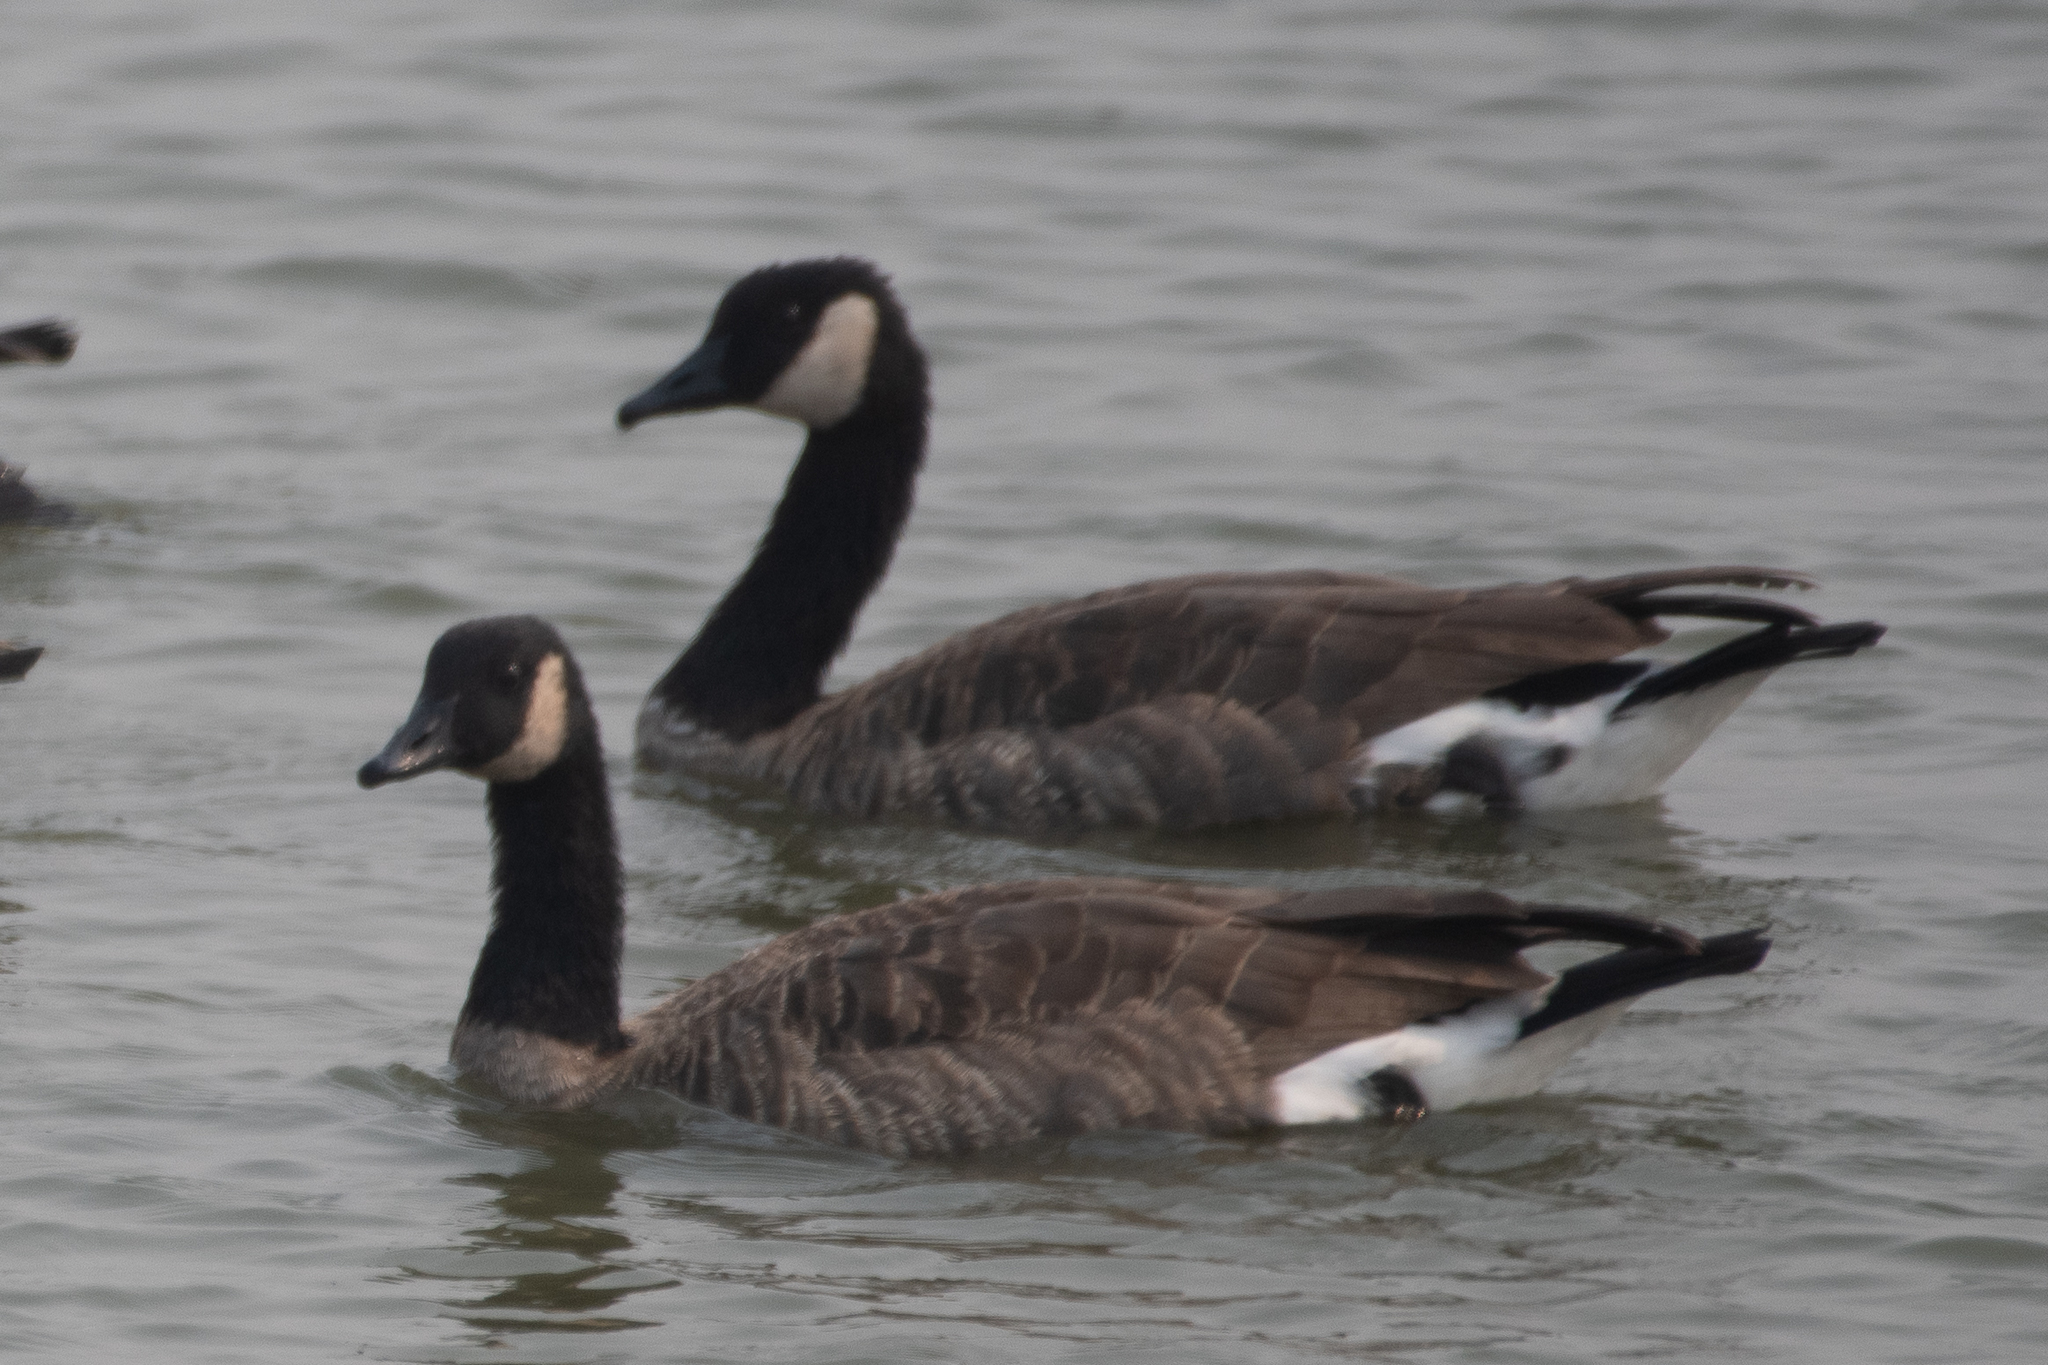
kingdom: Animalia
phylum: Chordata
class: Aves
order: Anseriformes
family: Anatidae
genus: Branta
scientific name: Branta canadensis
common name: Canada goose
